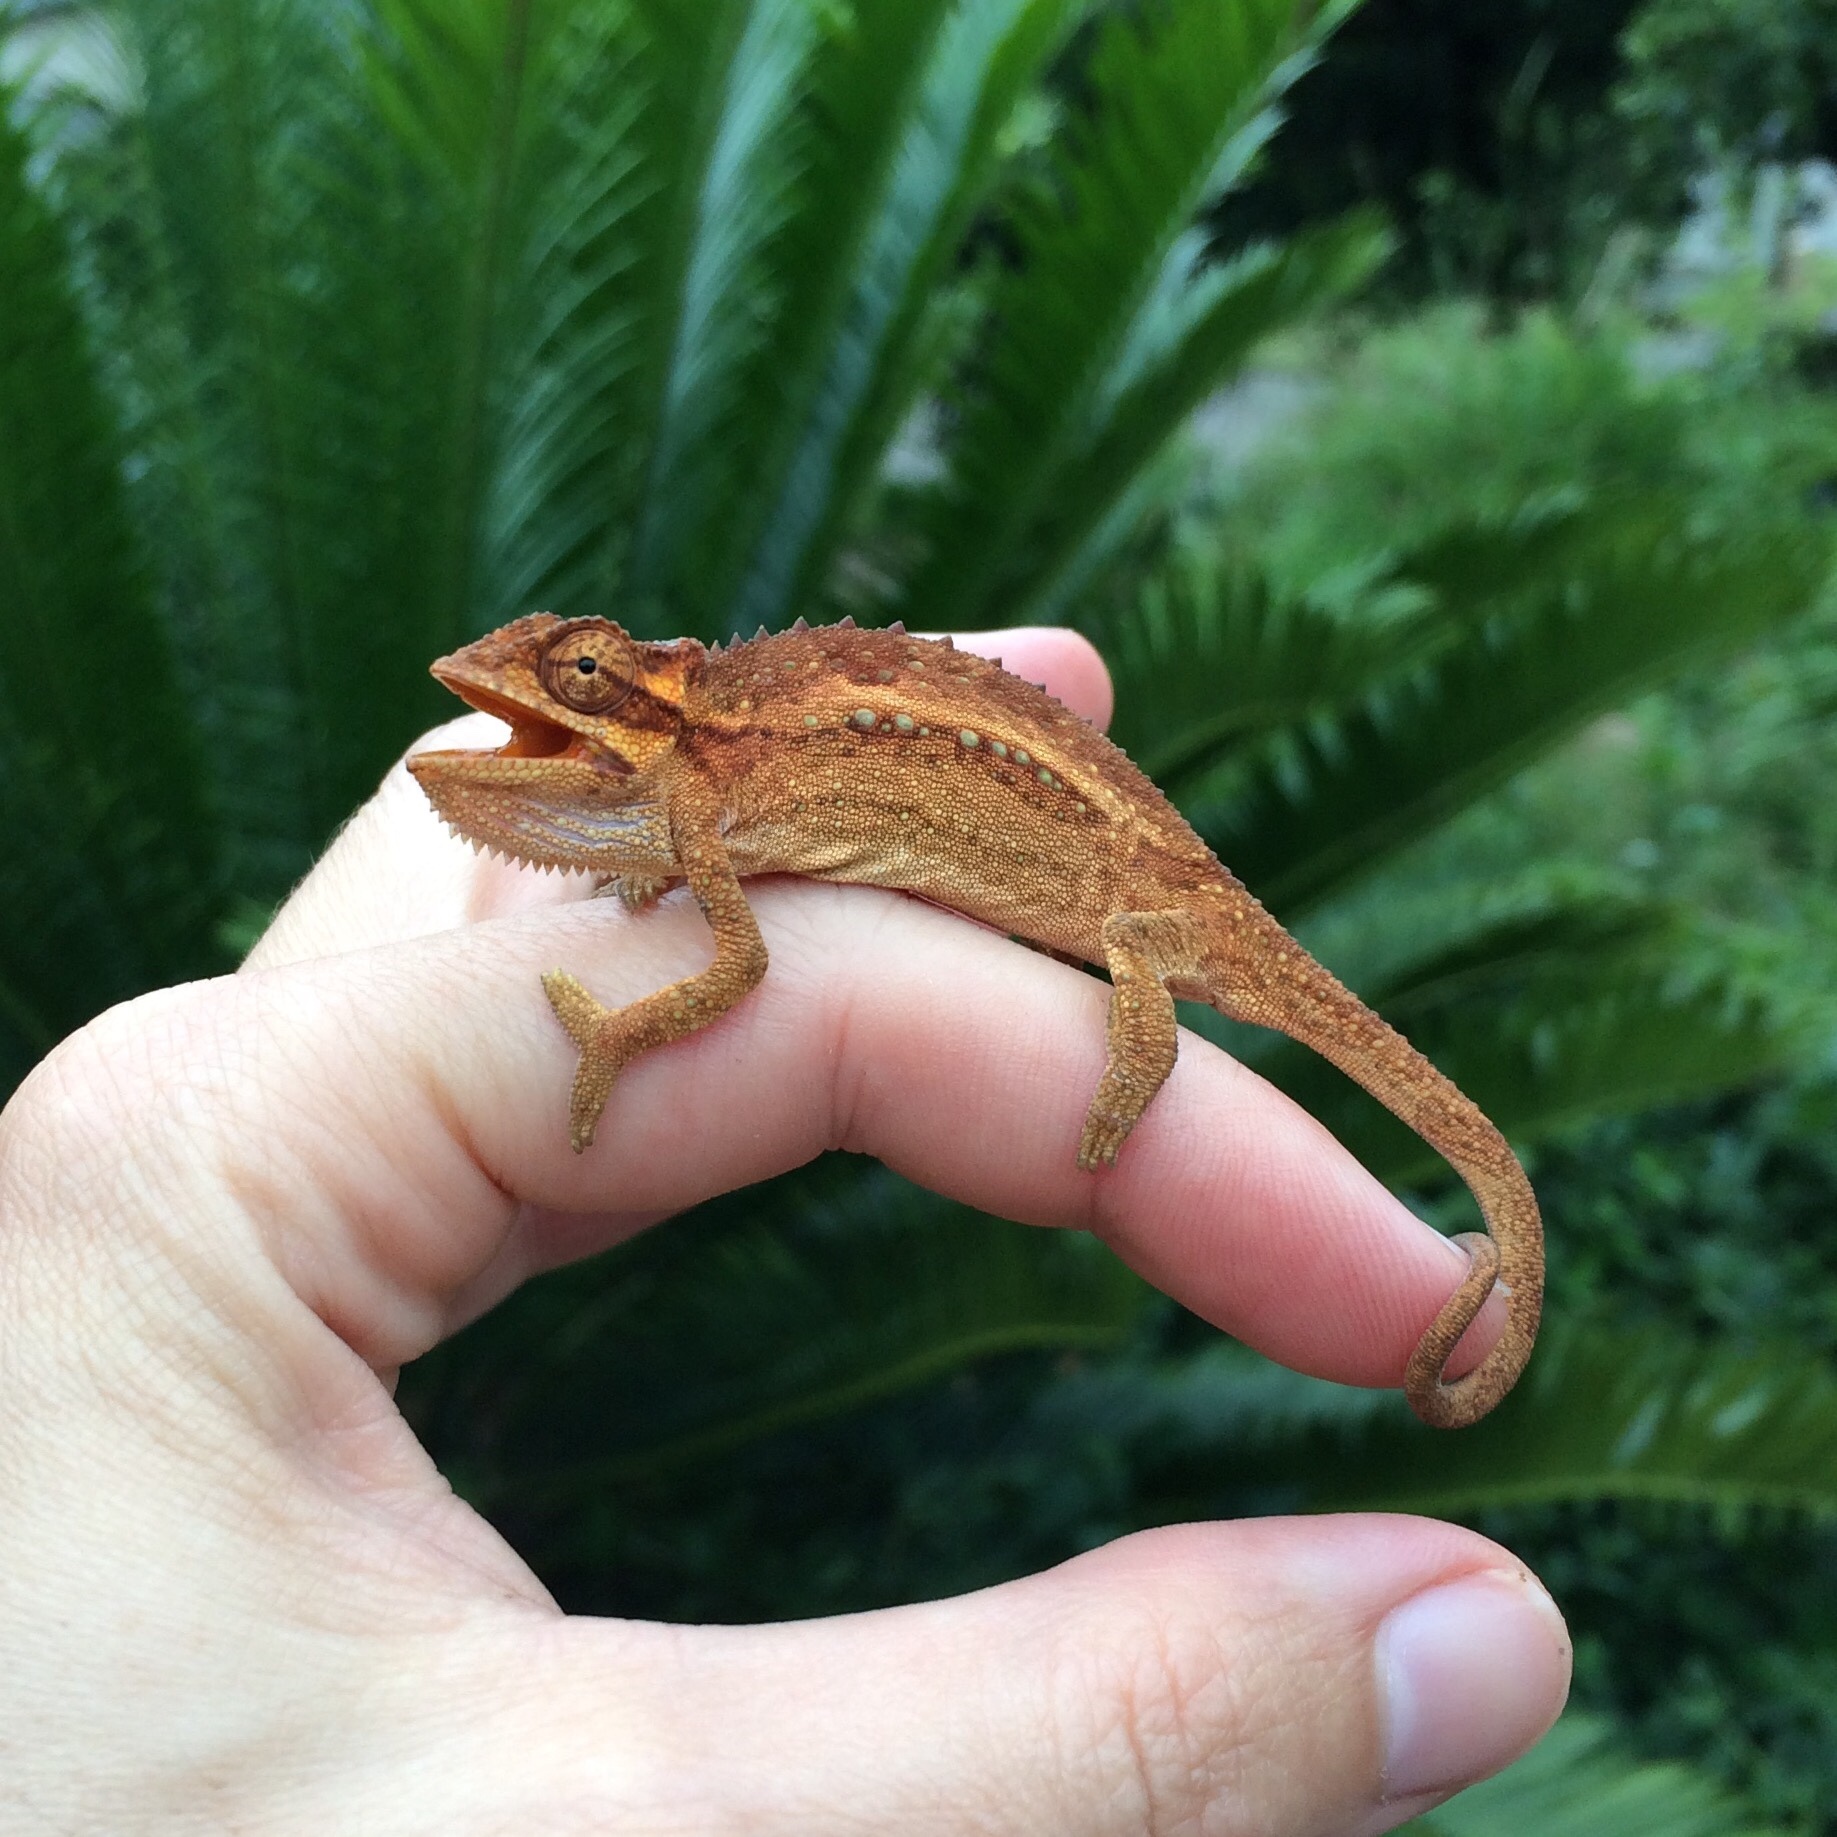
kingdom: Animalia
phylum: Chordata
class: Squamata
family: Chamaeleonidae
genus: Bradypodion
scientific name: Bradypodion melanocephalum
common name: Black-headed dwarf chameleon
